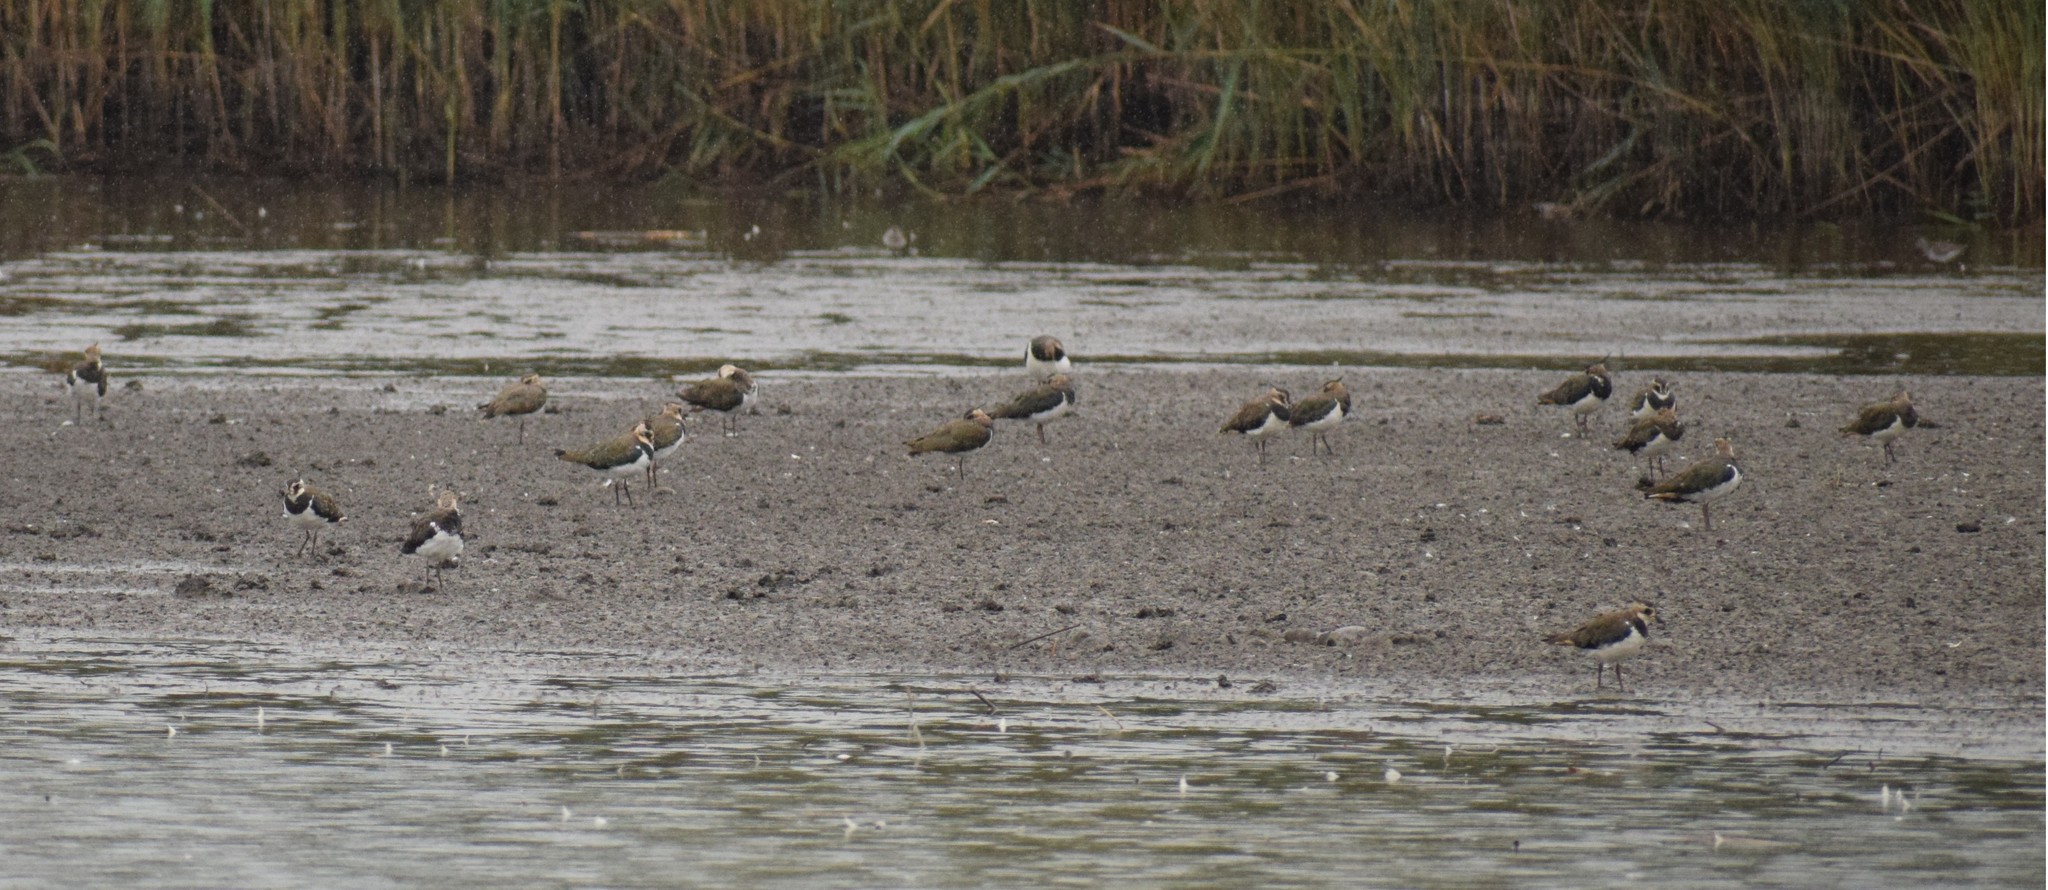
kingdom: Animalia
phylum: Chordata
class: Aves
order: Charadriiformes
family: Charadriidae
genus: Vanellus
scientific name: Vanellus vanellus
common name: Northern lapwing
